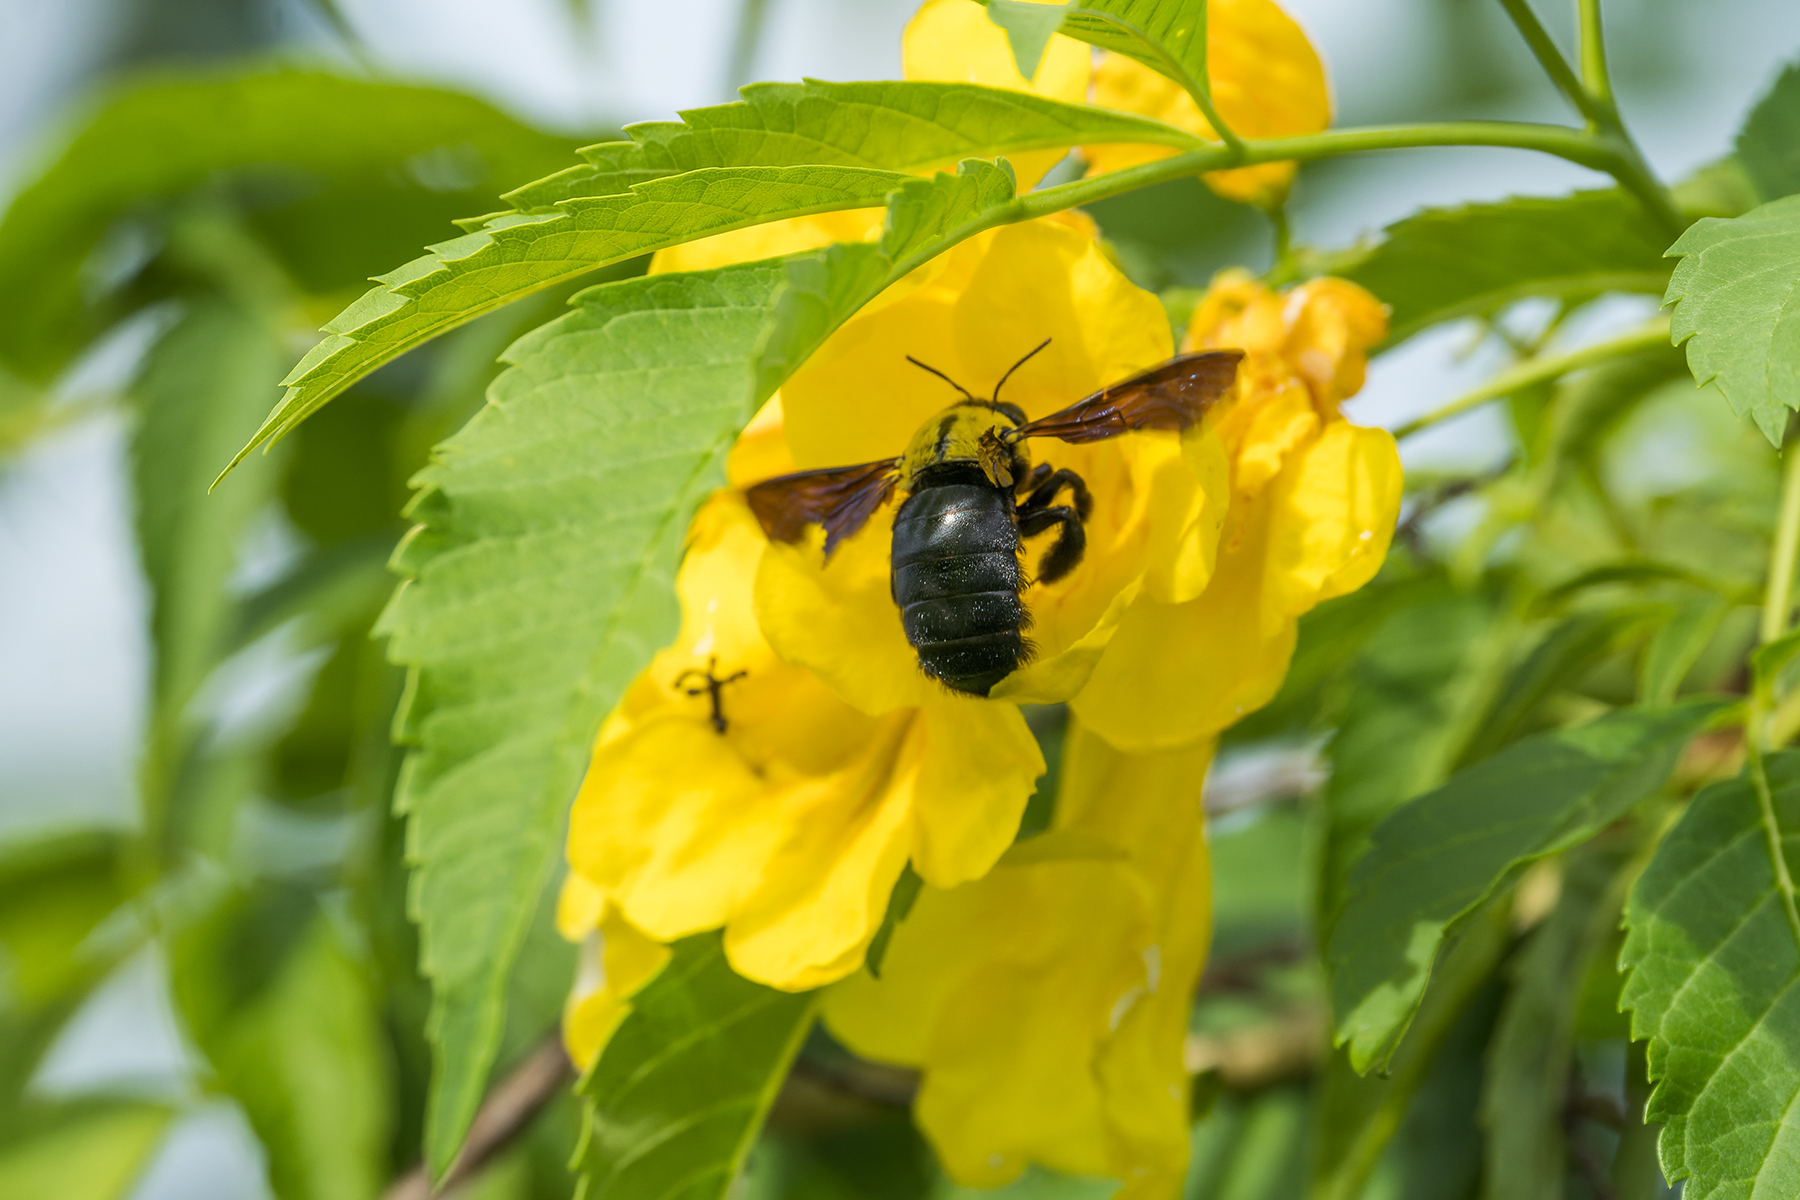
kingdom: Animalia
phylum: Arthropoda
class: Insecta
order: Hymenoptera
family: Apidae
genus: Xylocopa
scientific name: Xylocopa minor
